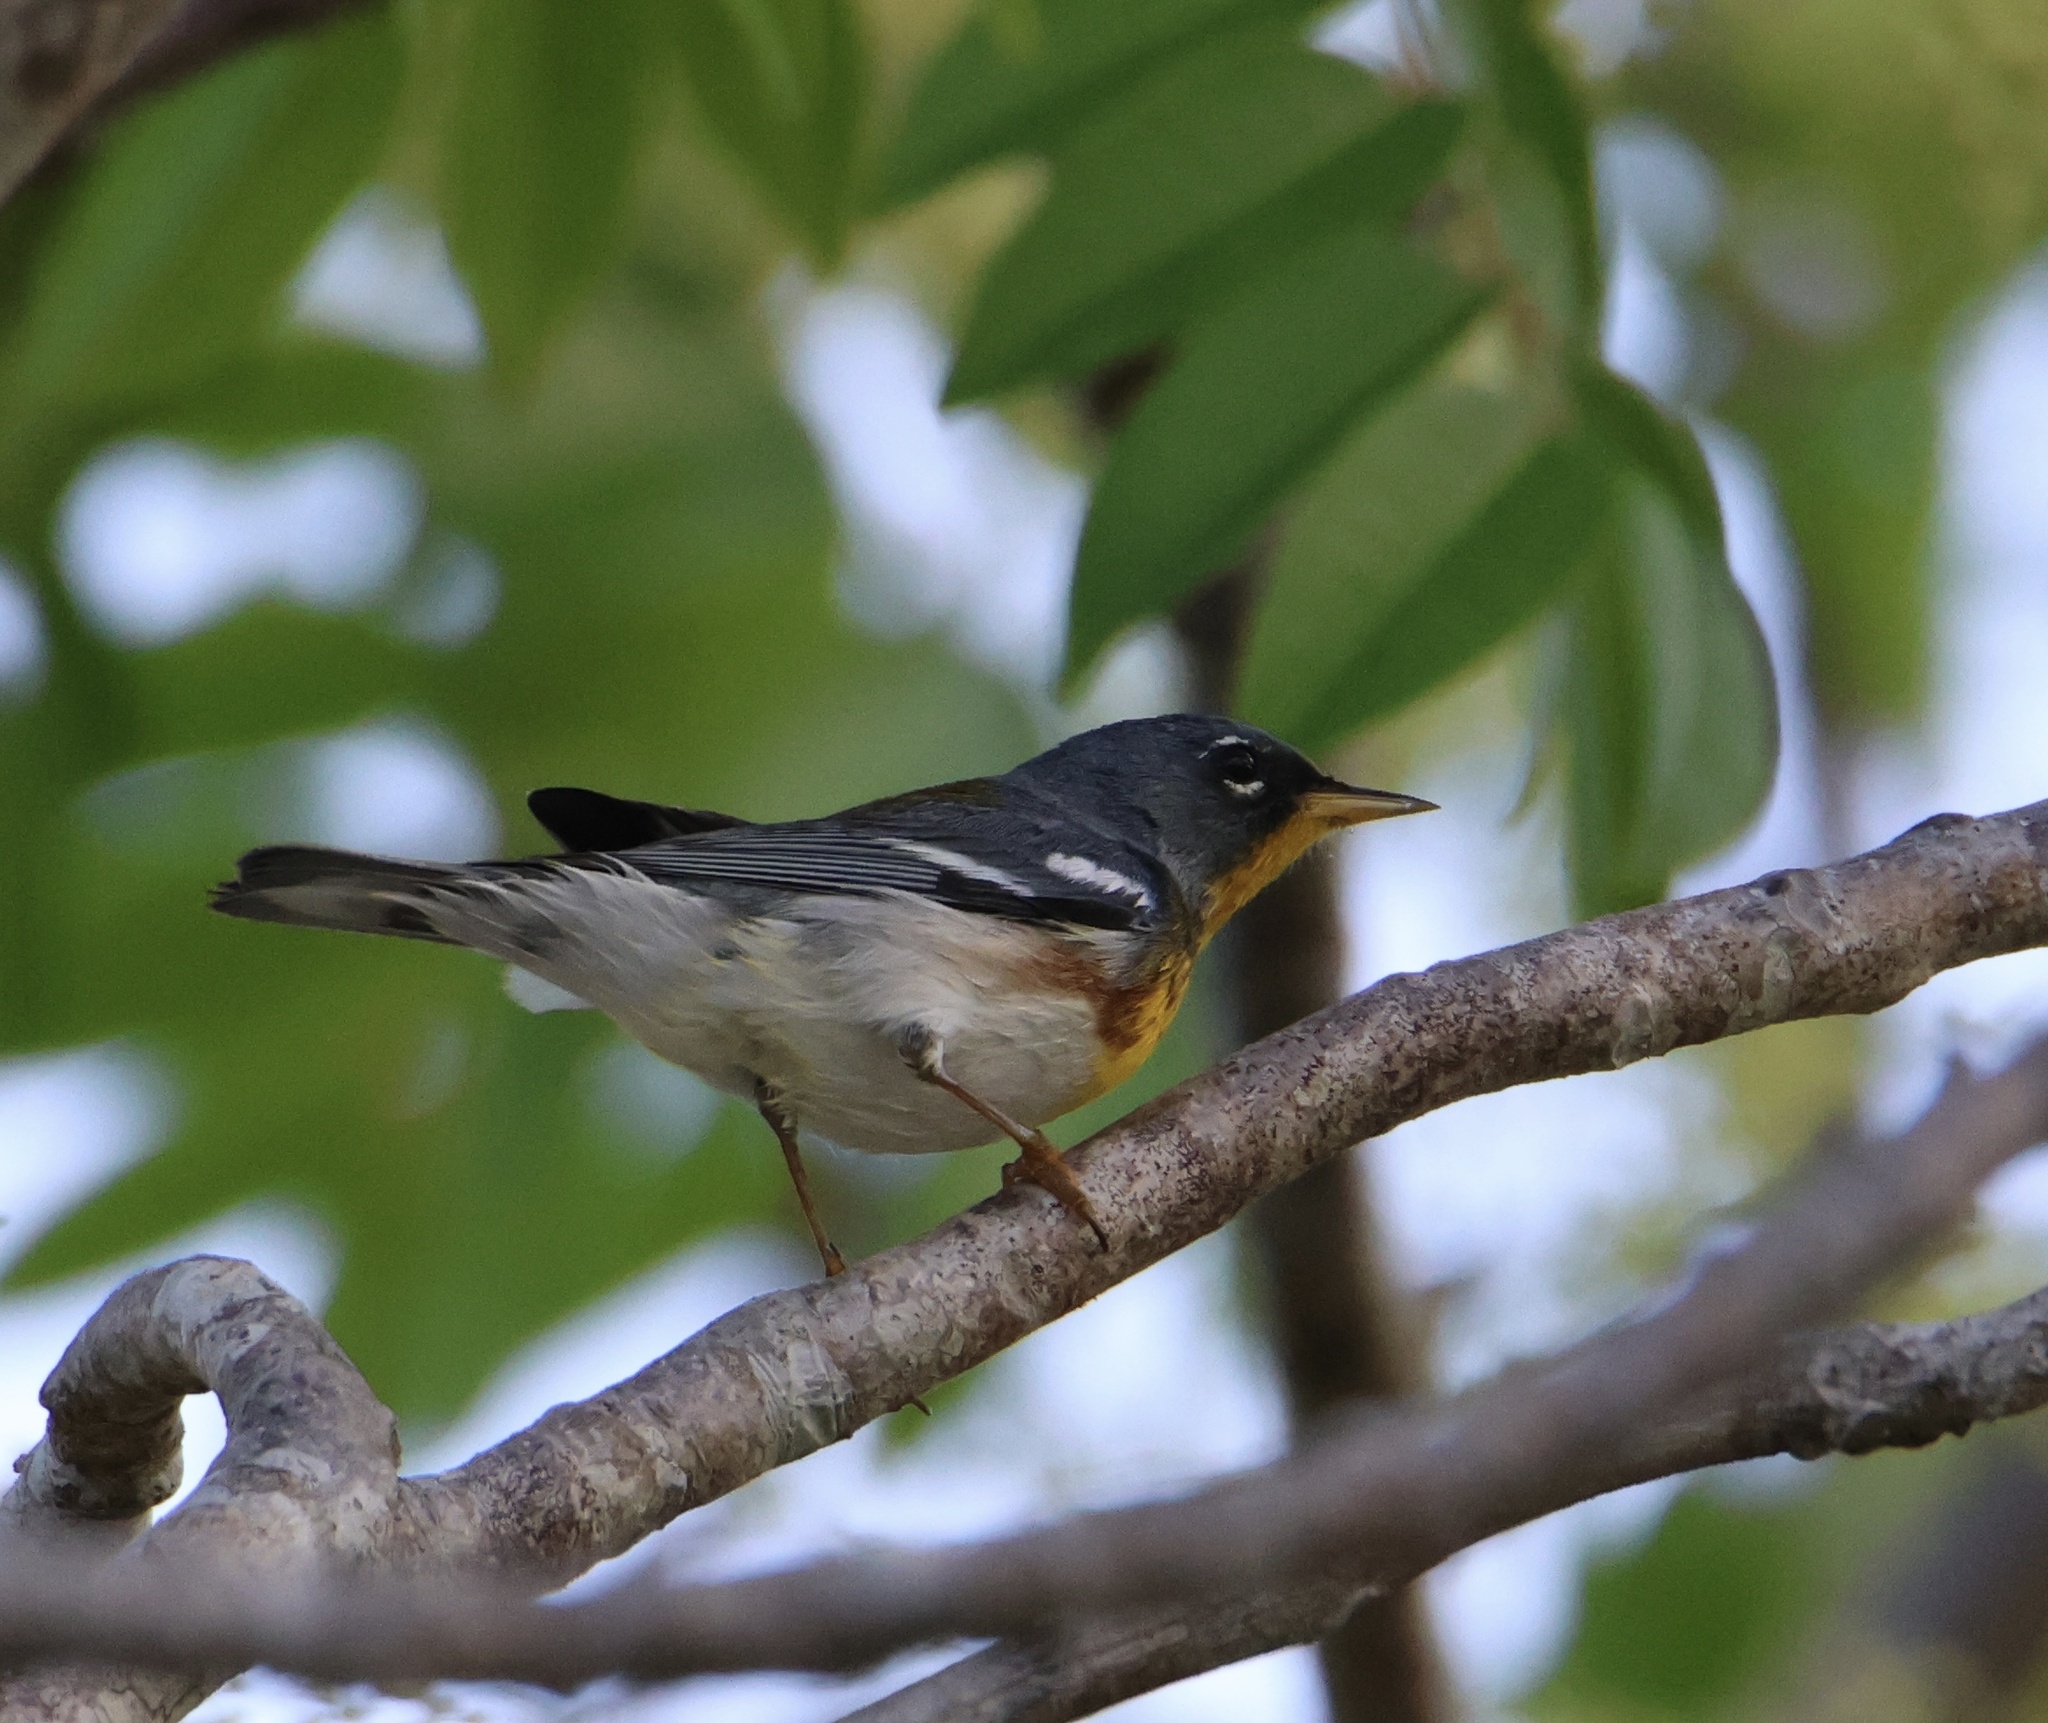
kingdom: Animalia
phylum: Chordata
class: Aves
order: Passeriformes
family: Parulidae
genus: Setophaga
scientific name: Setophaga americana
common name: Northern parula
